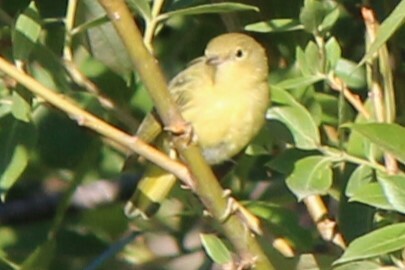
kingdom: Animalia
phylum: Chordata
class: Aves
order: Passeriformes
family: Parulidae
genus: Setophaga
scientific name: Setophaga petechia
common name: Yellow warbler
